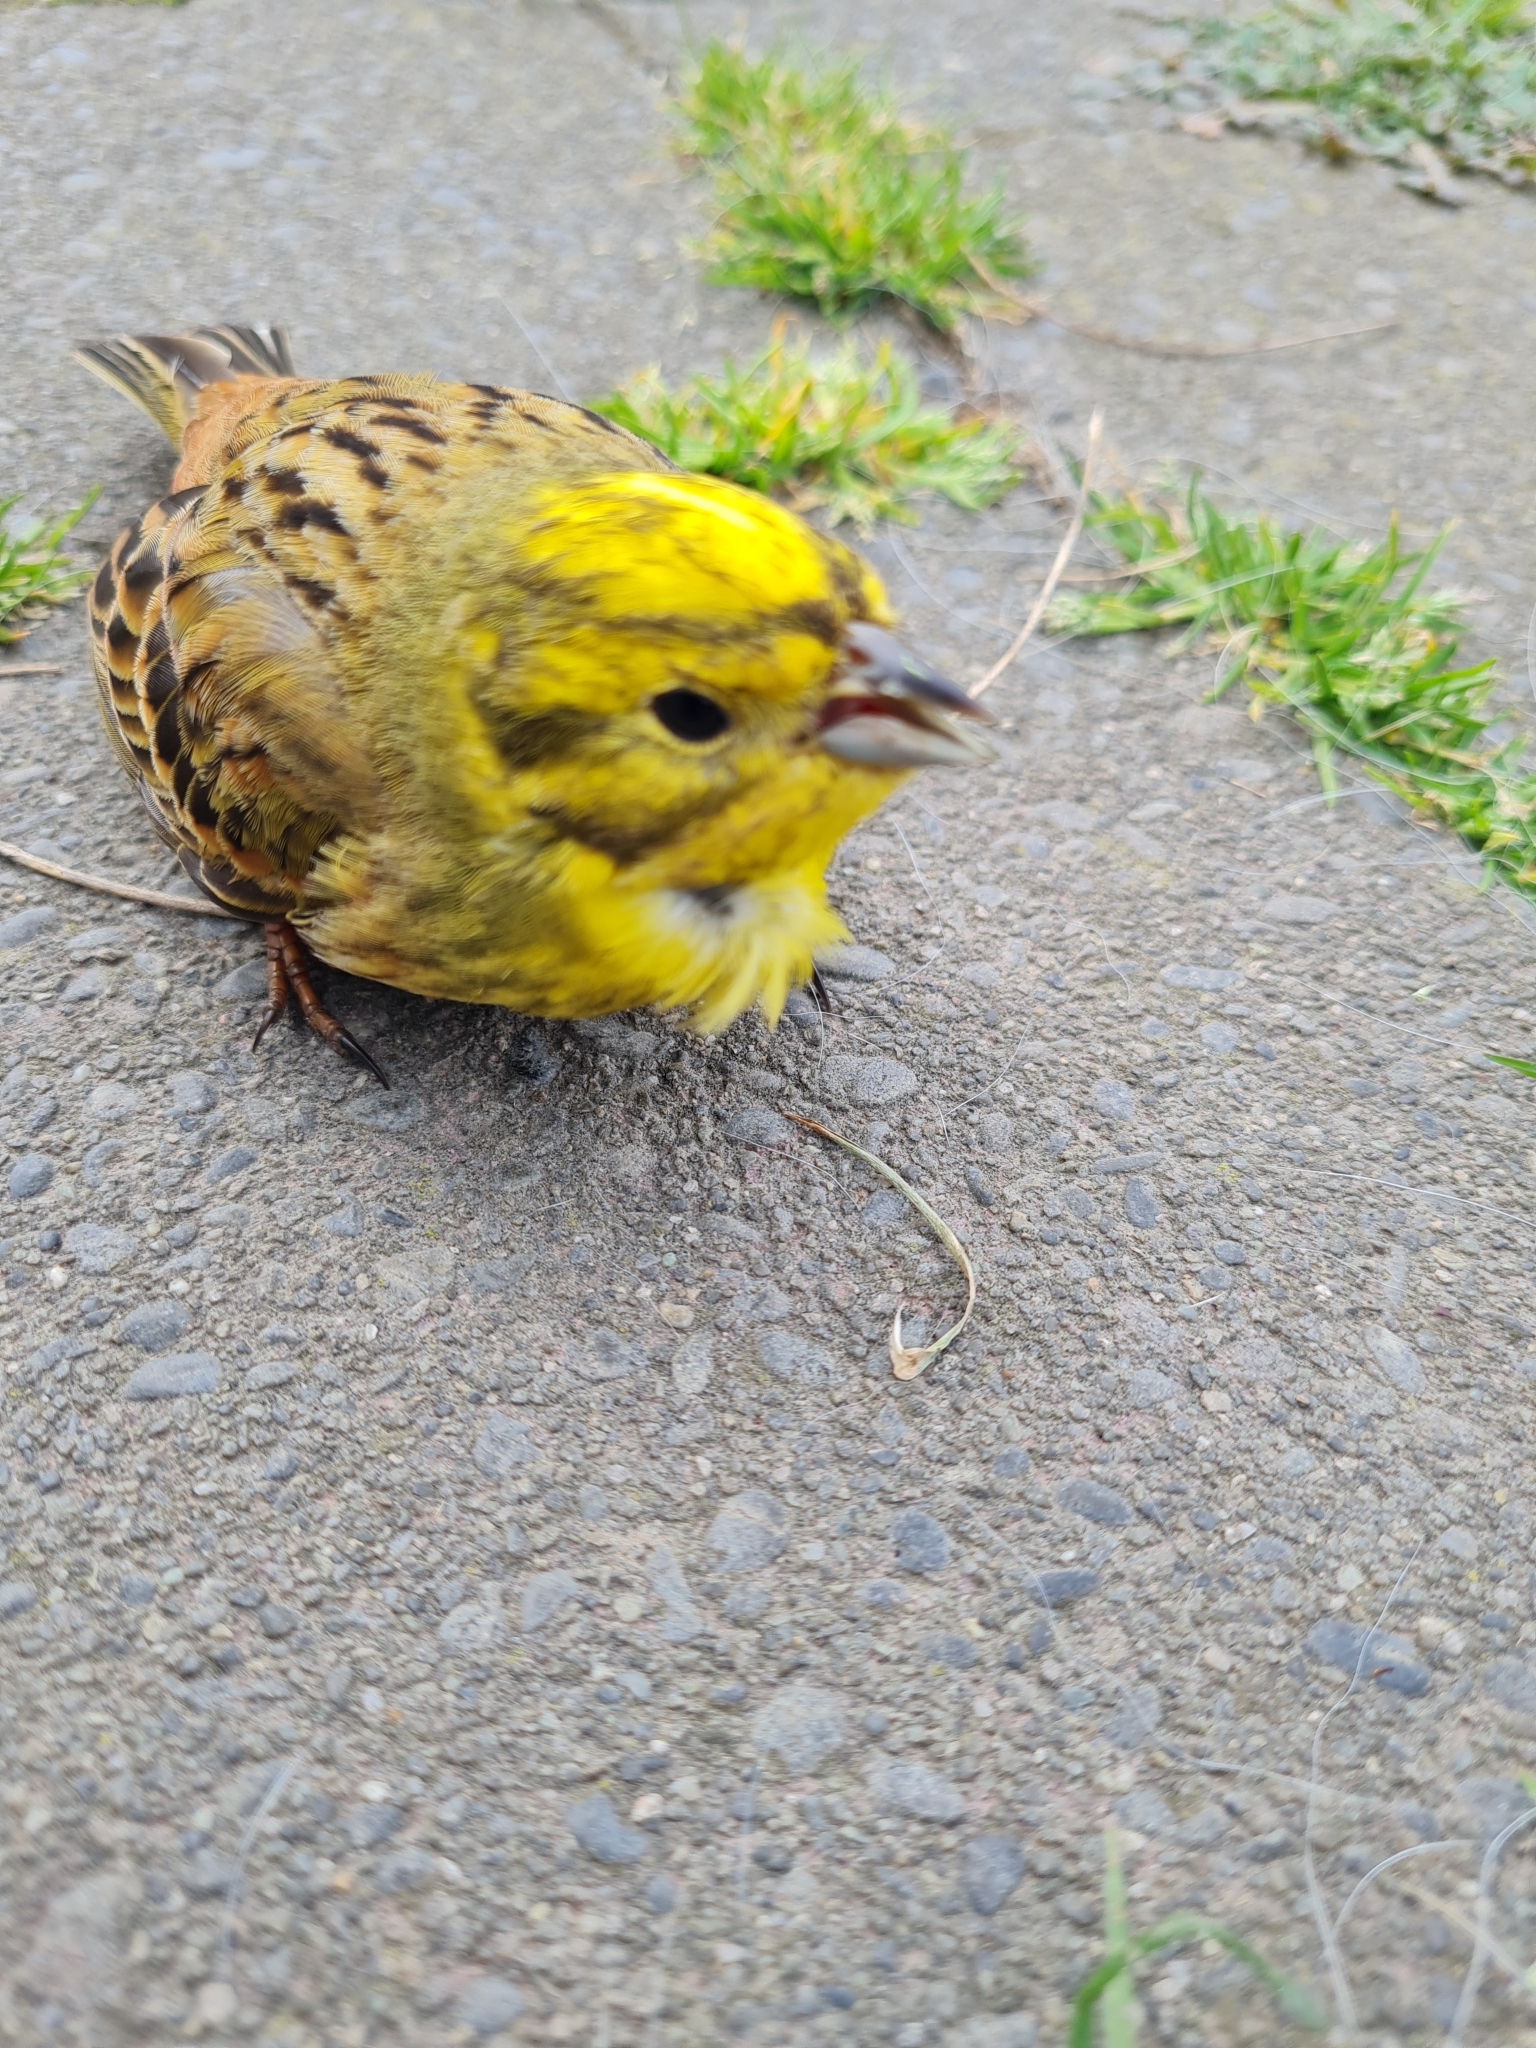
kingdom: Animalia
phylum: Chordata
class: Aves
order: Passeriformes
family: Emberizidae
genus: Emberiza
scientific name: Emberiza citrinella
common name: Yellowhammer
